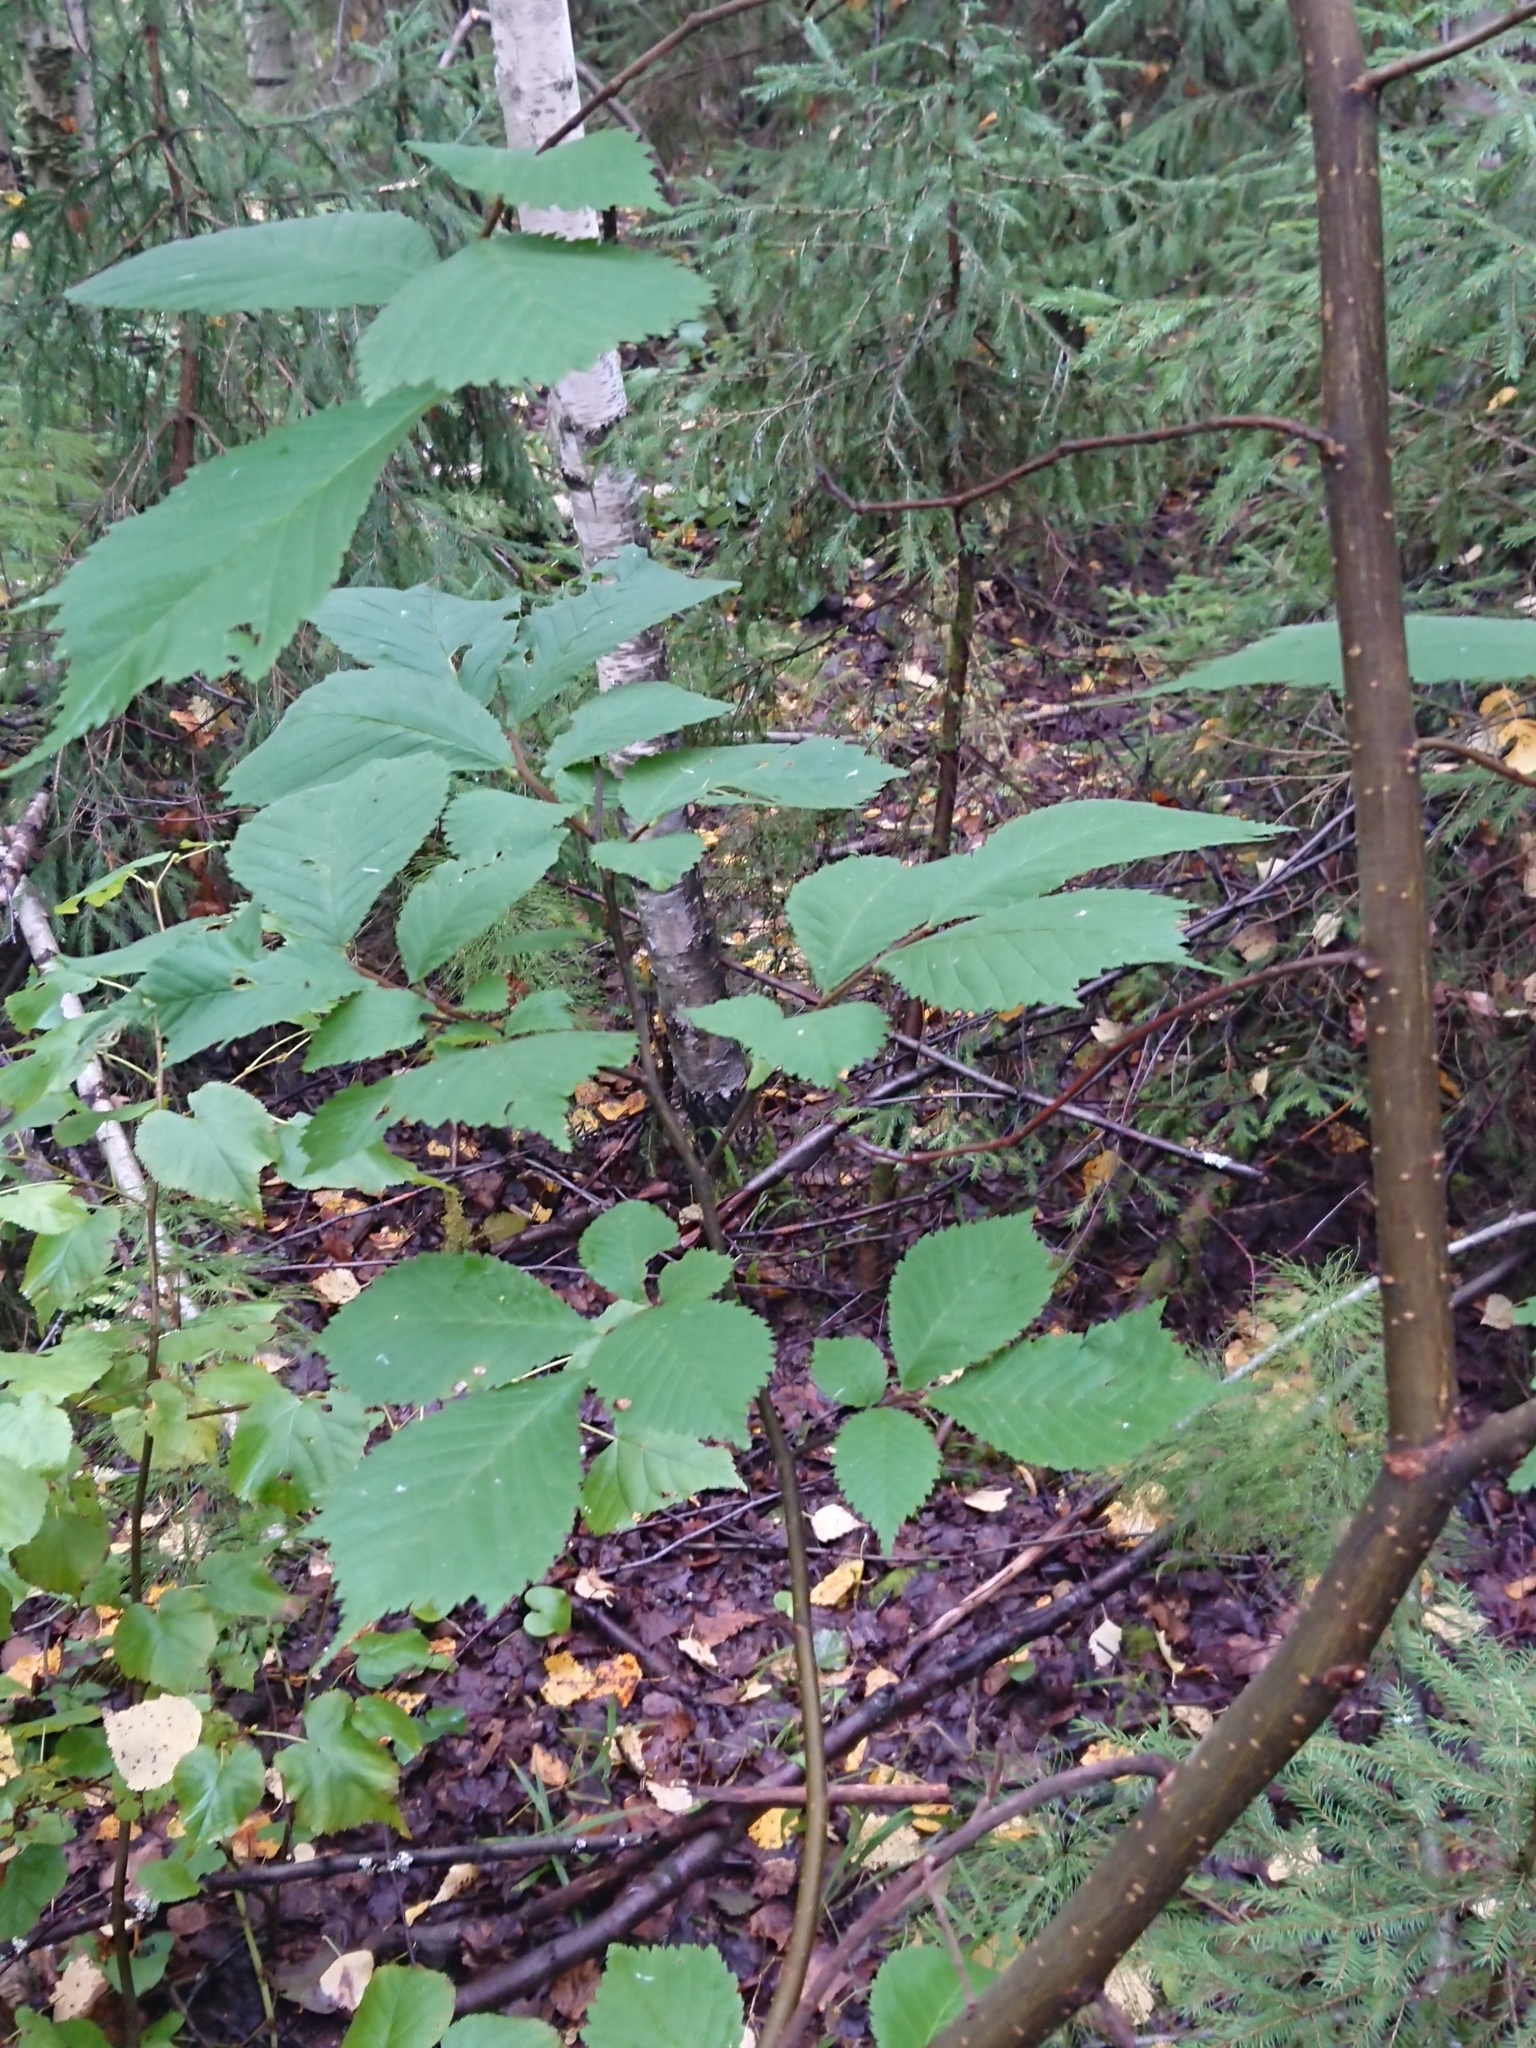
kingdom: Plantae
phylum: Tracheophyta
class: Magnoliopsida
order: Rosales
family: Ulmaceae
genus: Ulmus
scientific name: Ulmus glabra
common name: Wych elm
